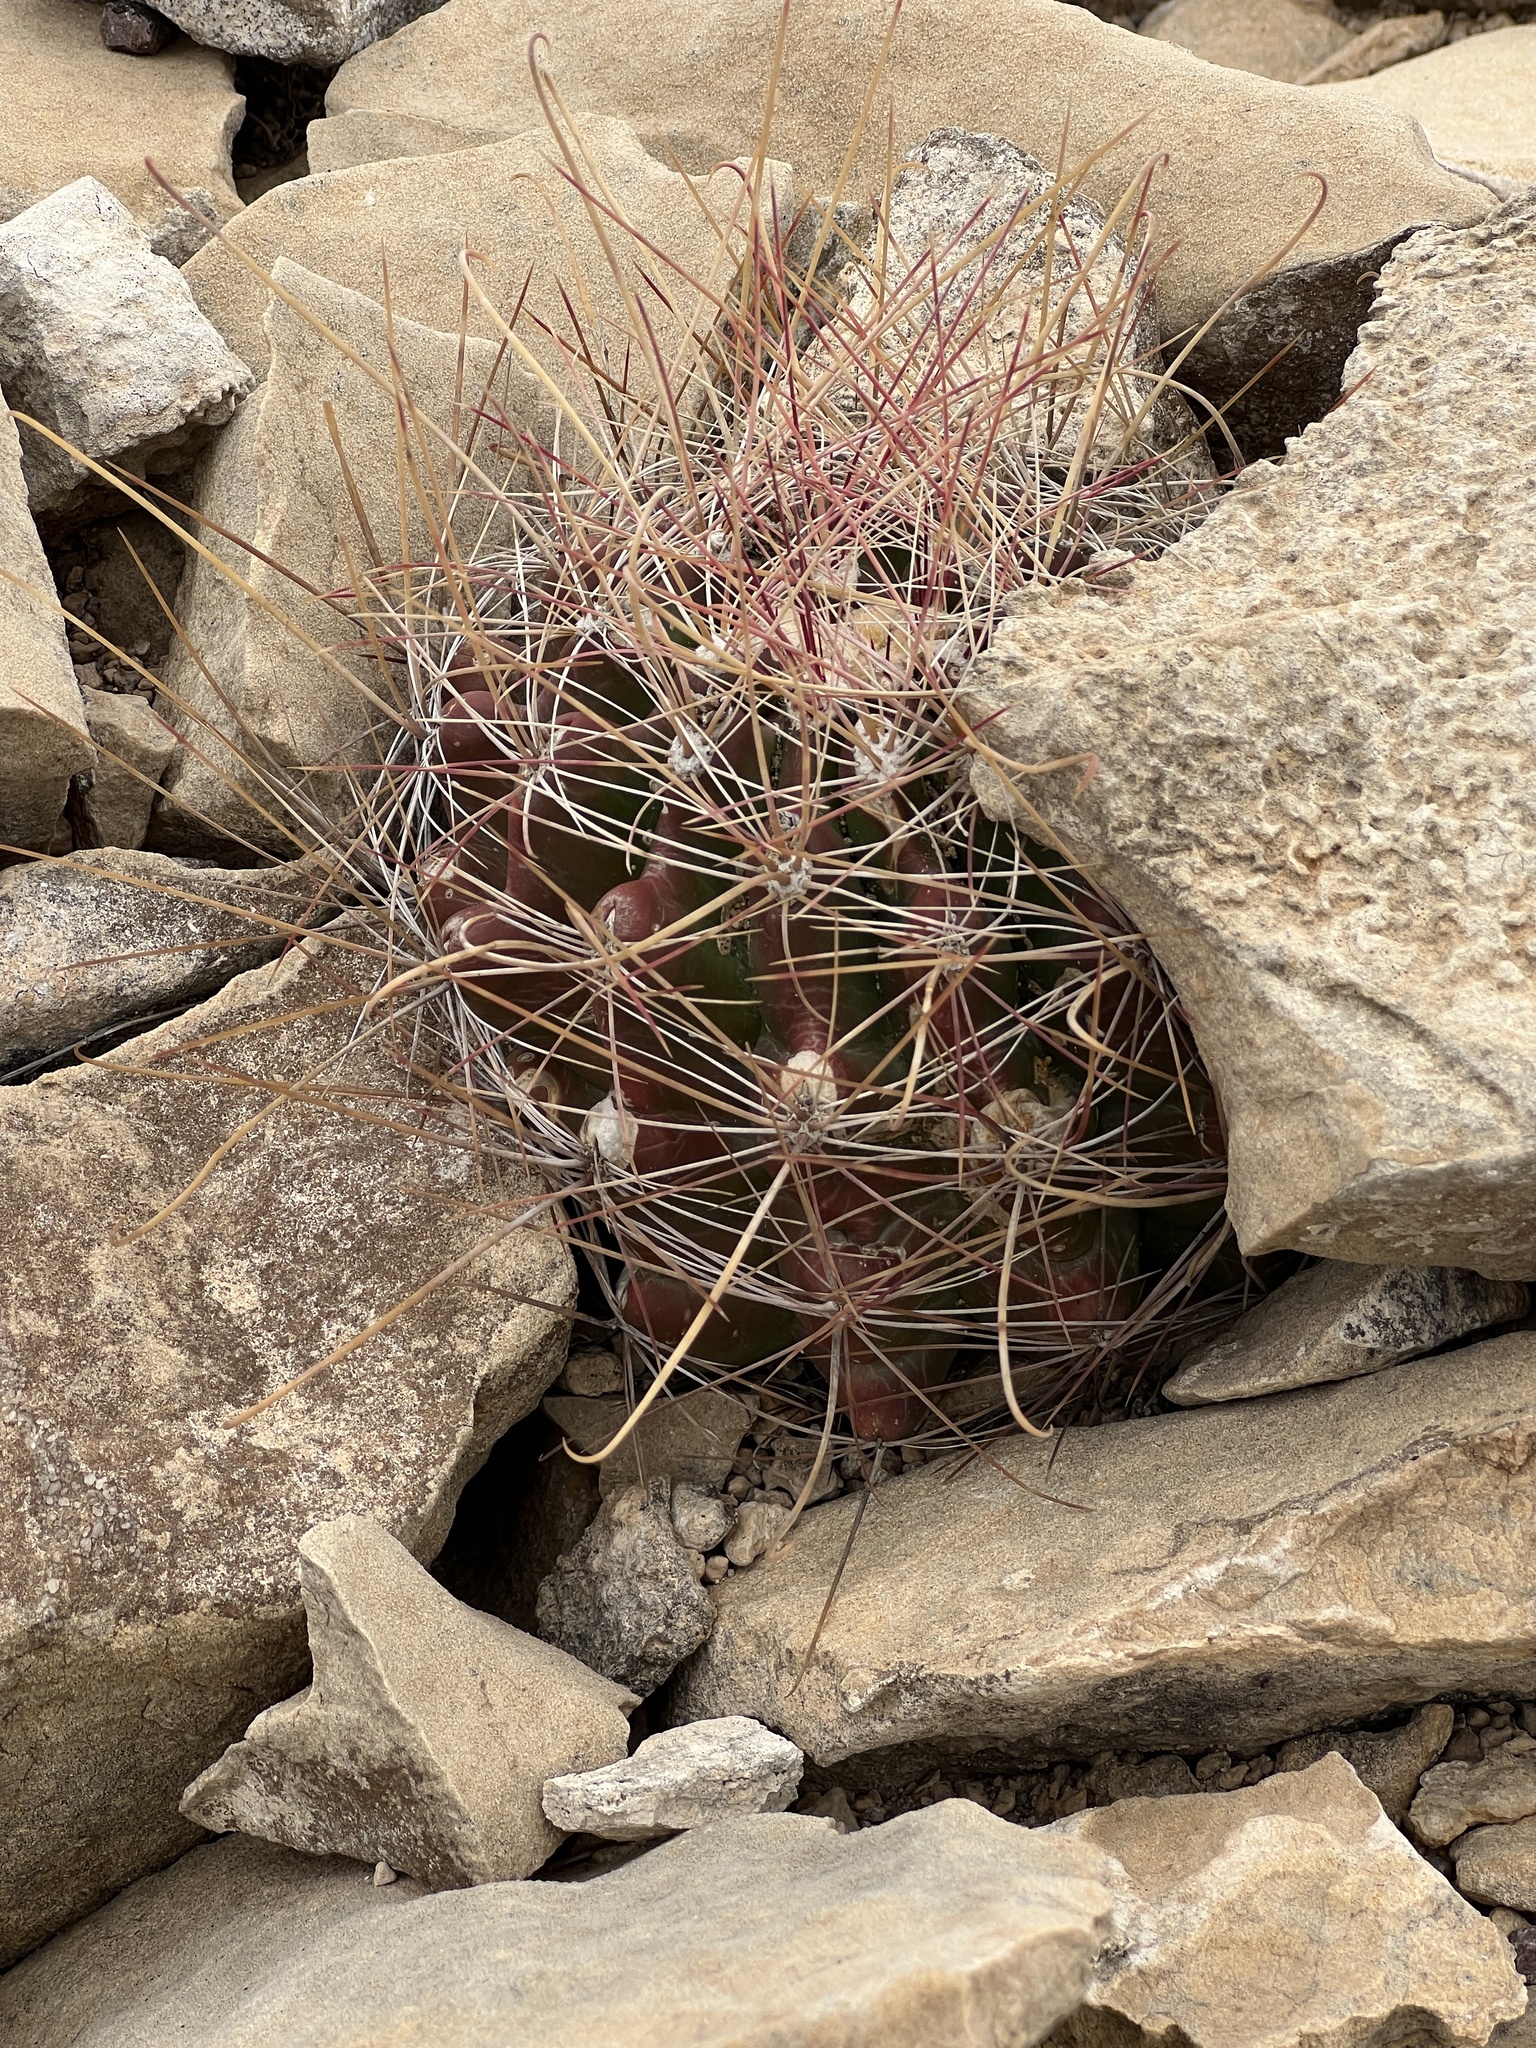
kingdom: Plantae
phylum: Tracheophyta
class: Magnoliopsida
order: Caryophyllales
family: Cactaceae
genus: Bisnaga
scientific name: Bisnaga hamatacantha
